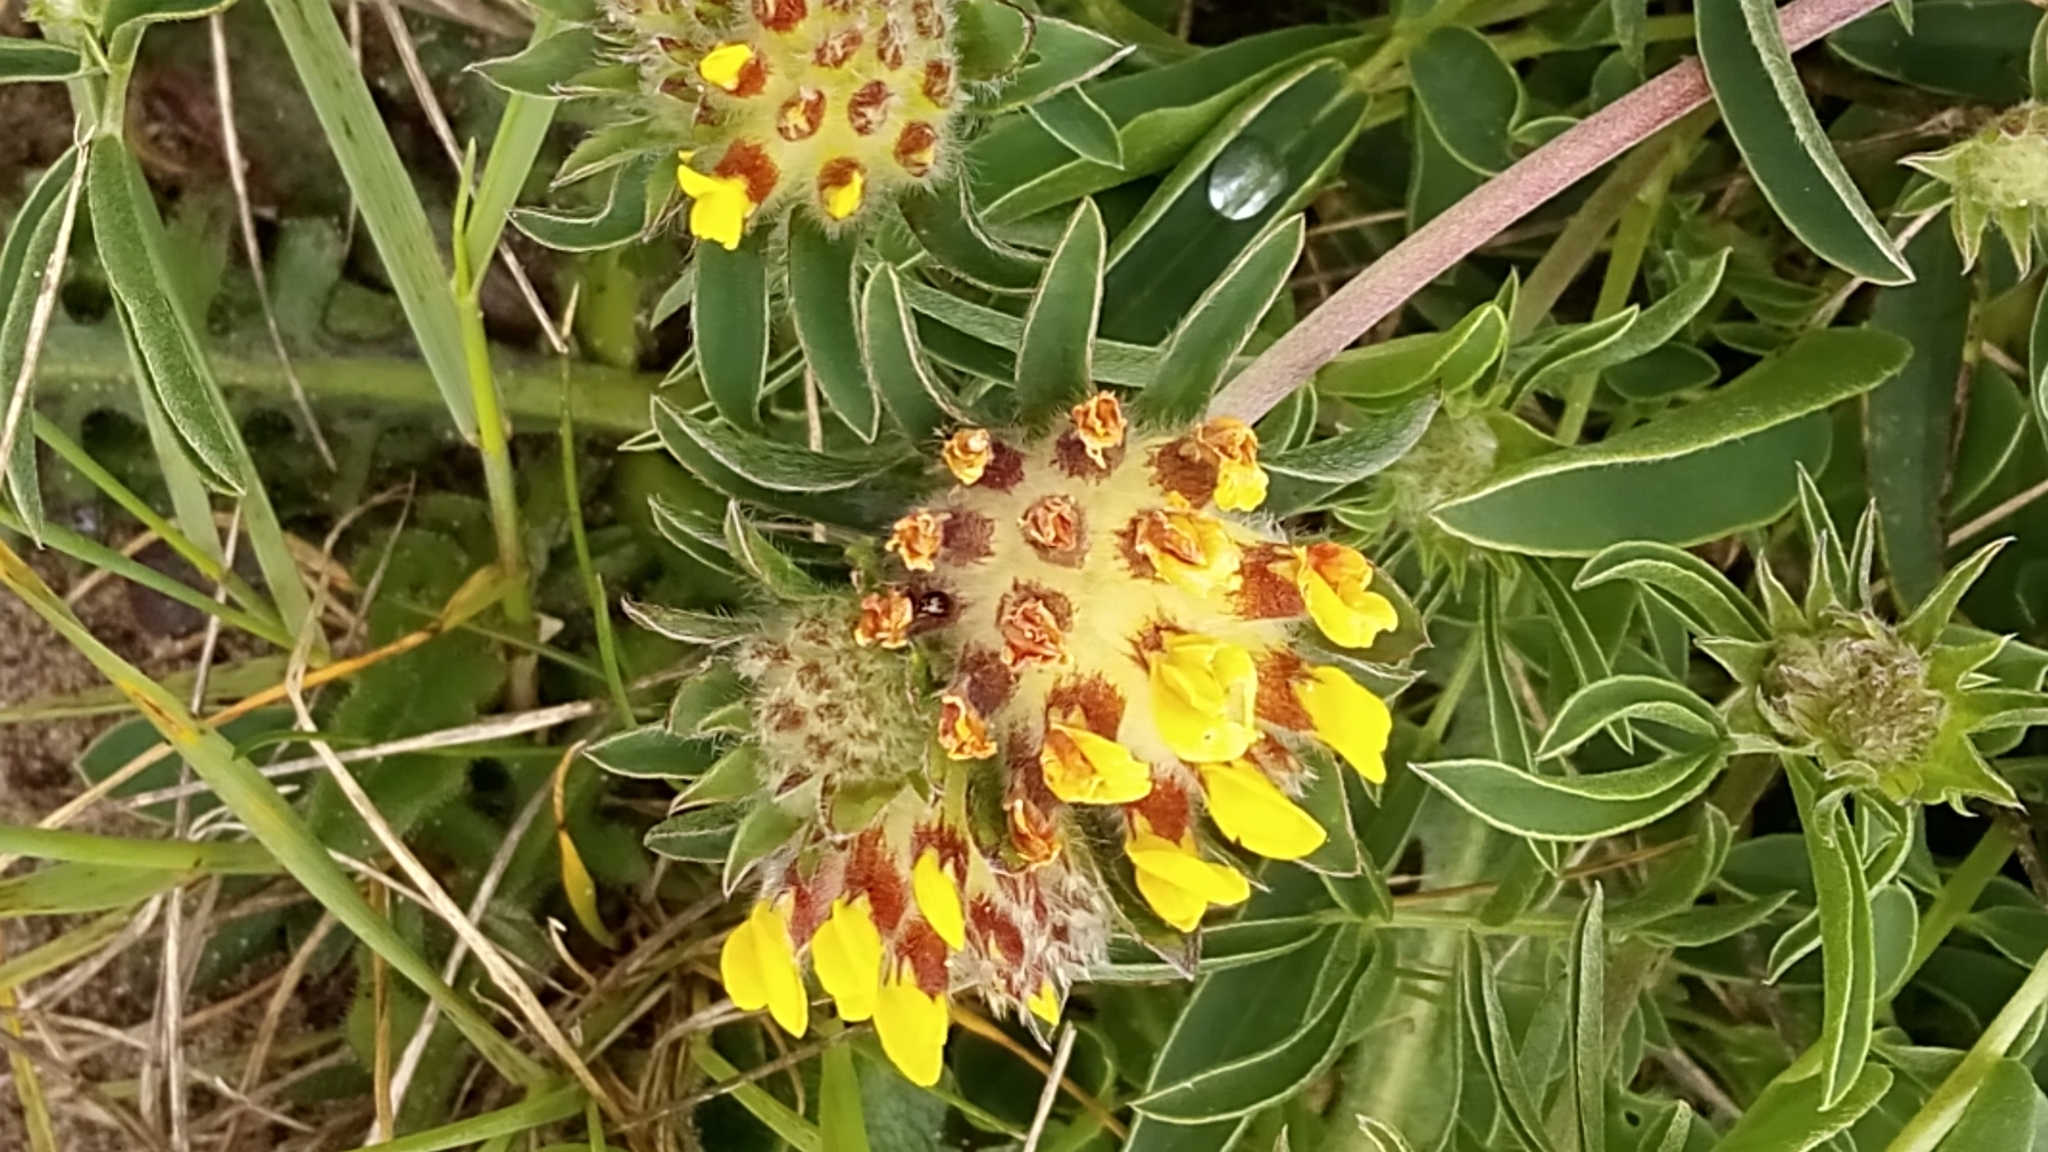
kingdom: Plantae
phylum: Tracheophyta
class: Magnoliopsida
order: Fabales
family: Fabaceae
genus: Anthyllis
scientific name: Anthyllis vulneraria
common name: Kidney vetch
